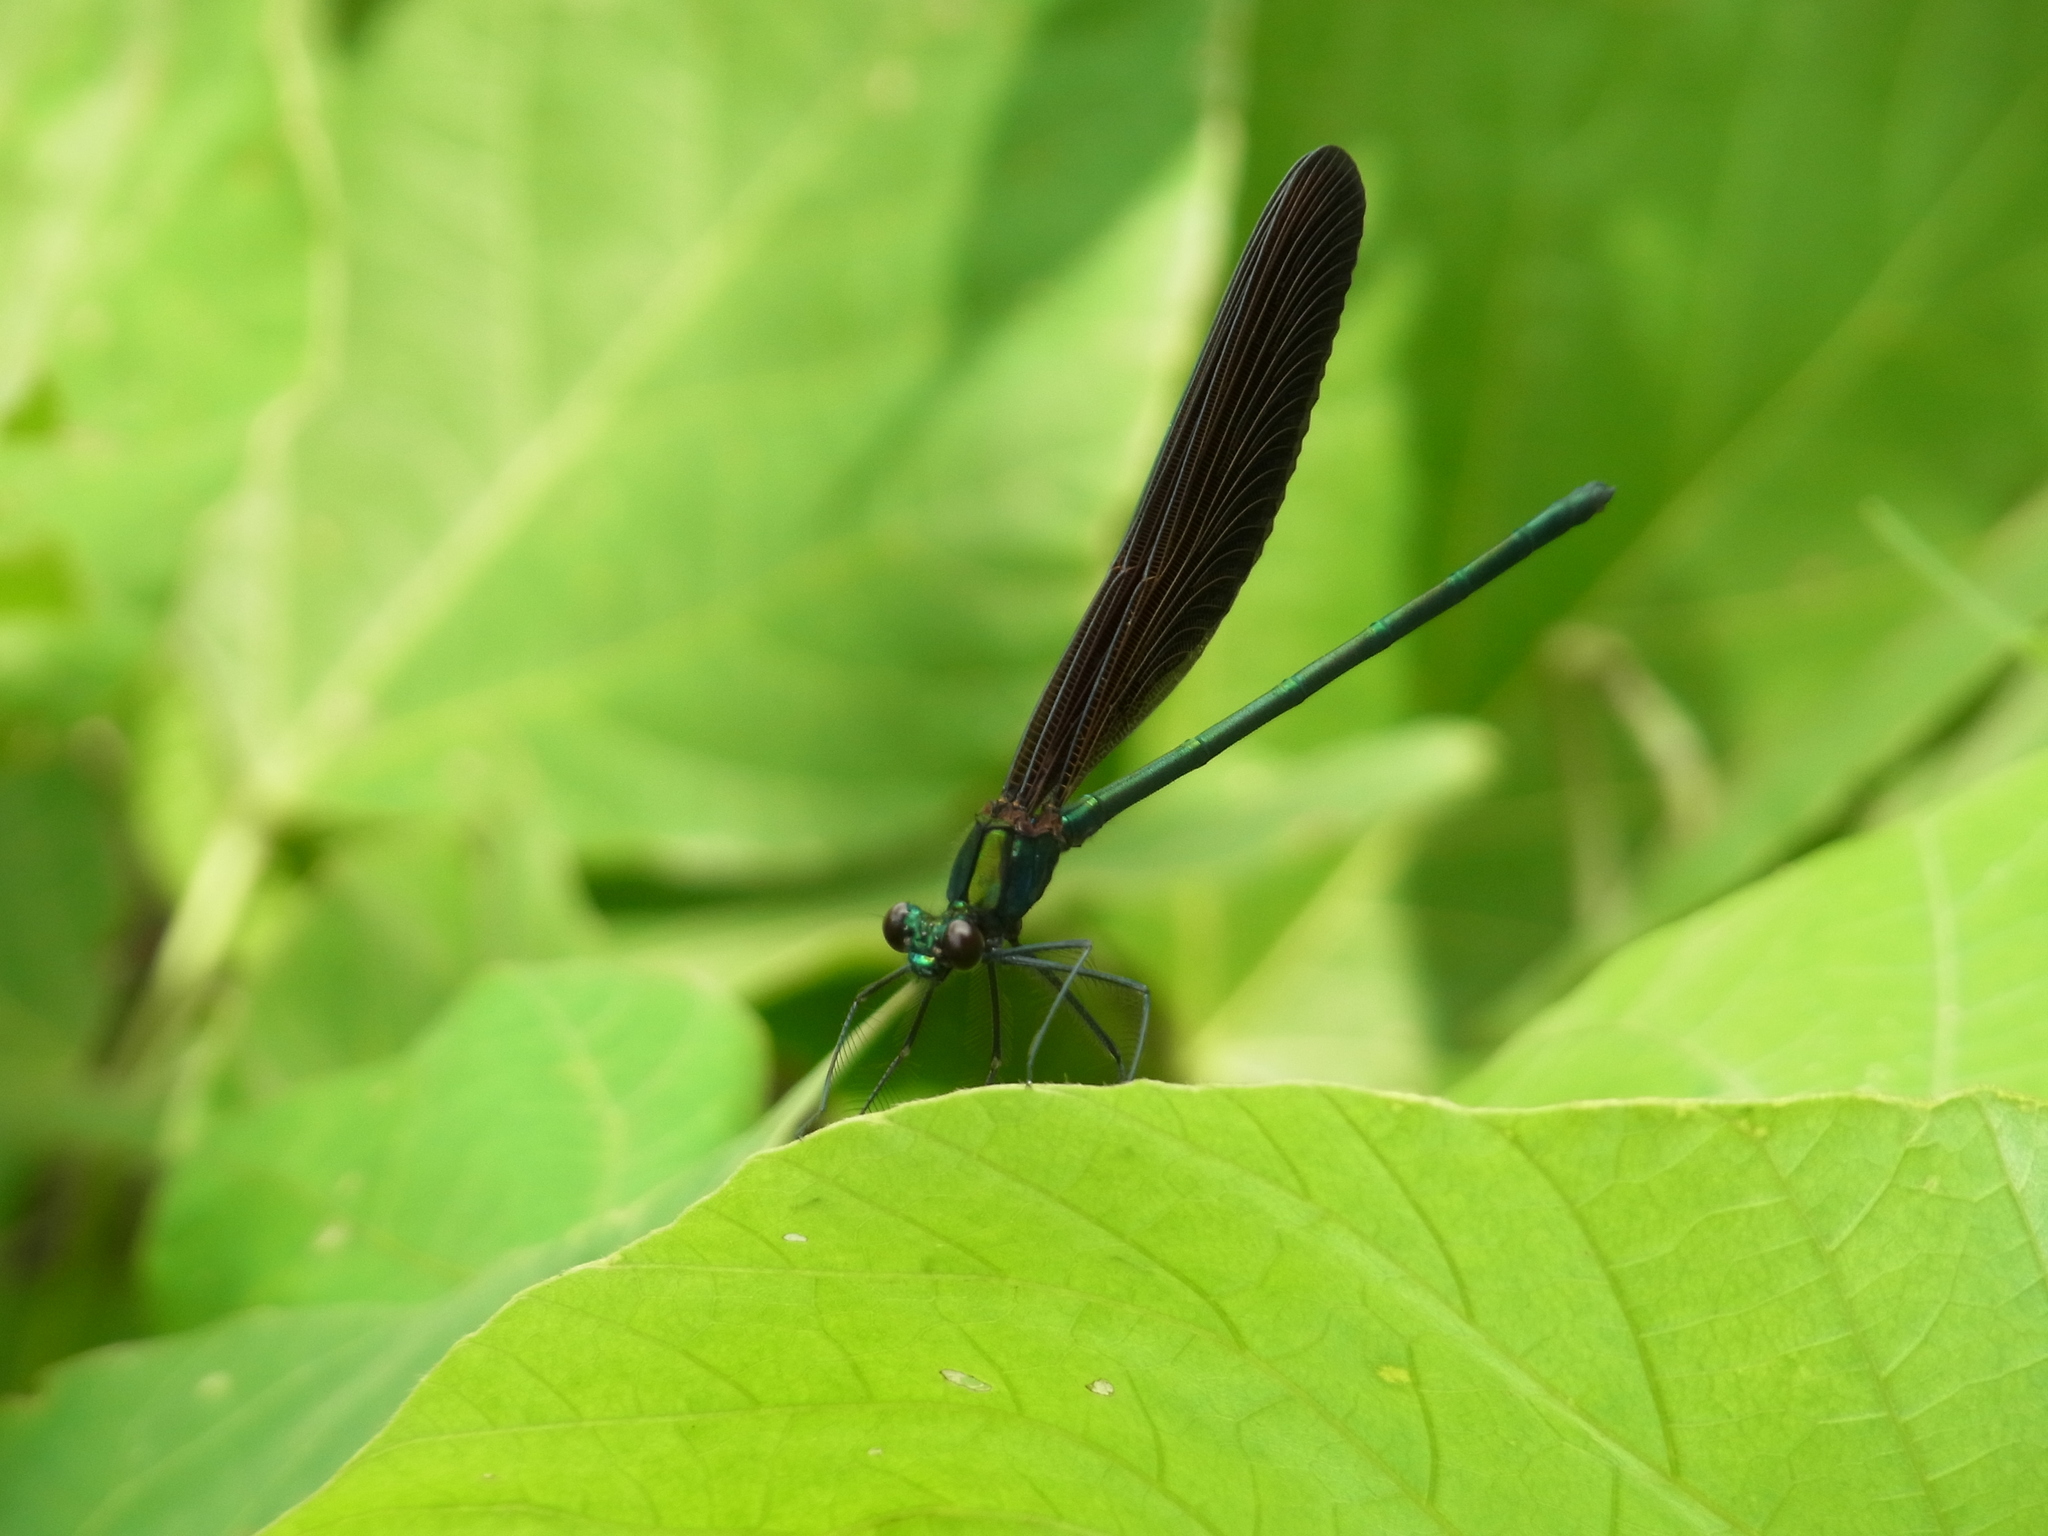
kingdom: Animalia
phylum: Arthropoda
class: Insecta
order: Odonata
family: Calopterygidae
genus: Atrocalopteryx
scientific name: Atrocalopteryx atrata
